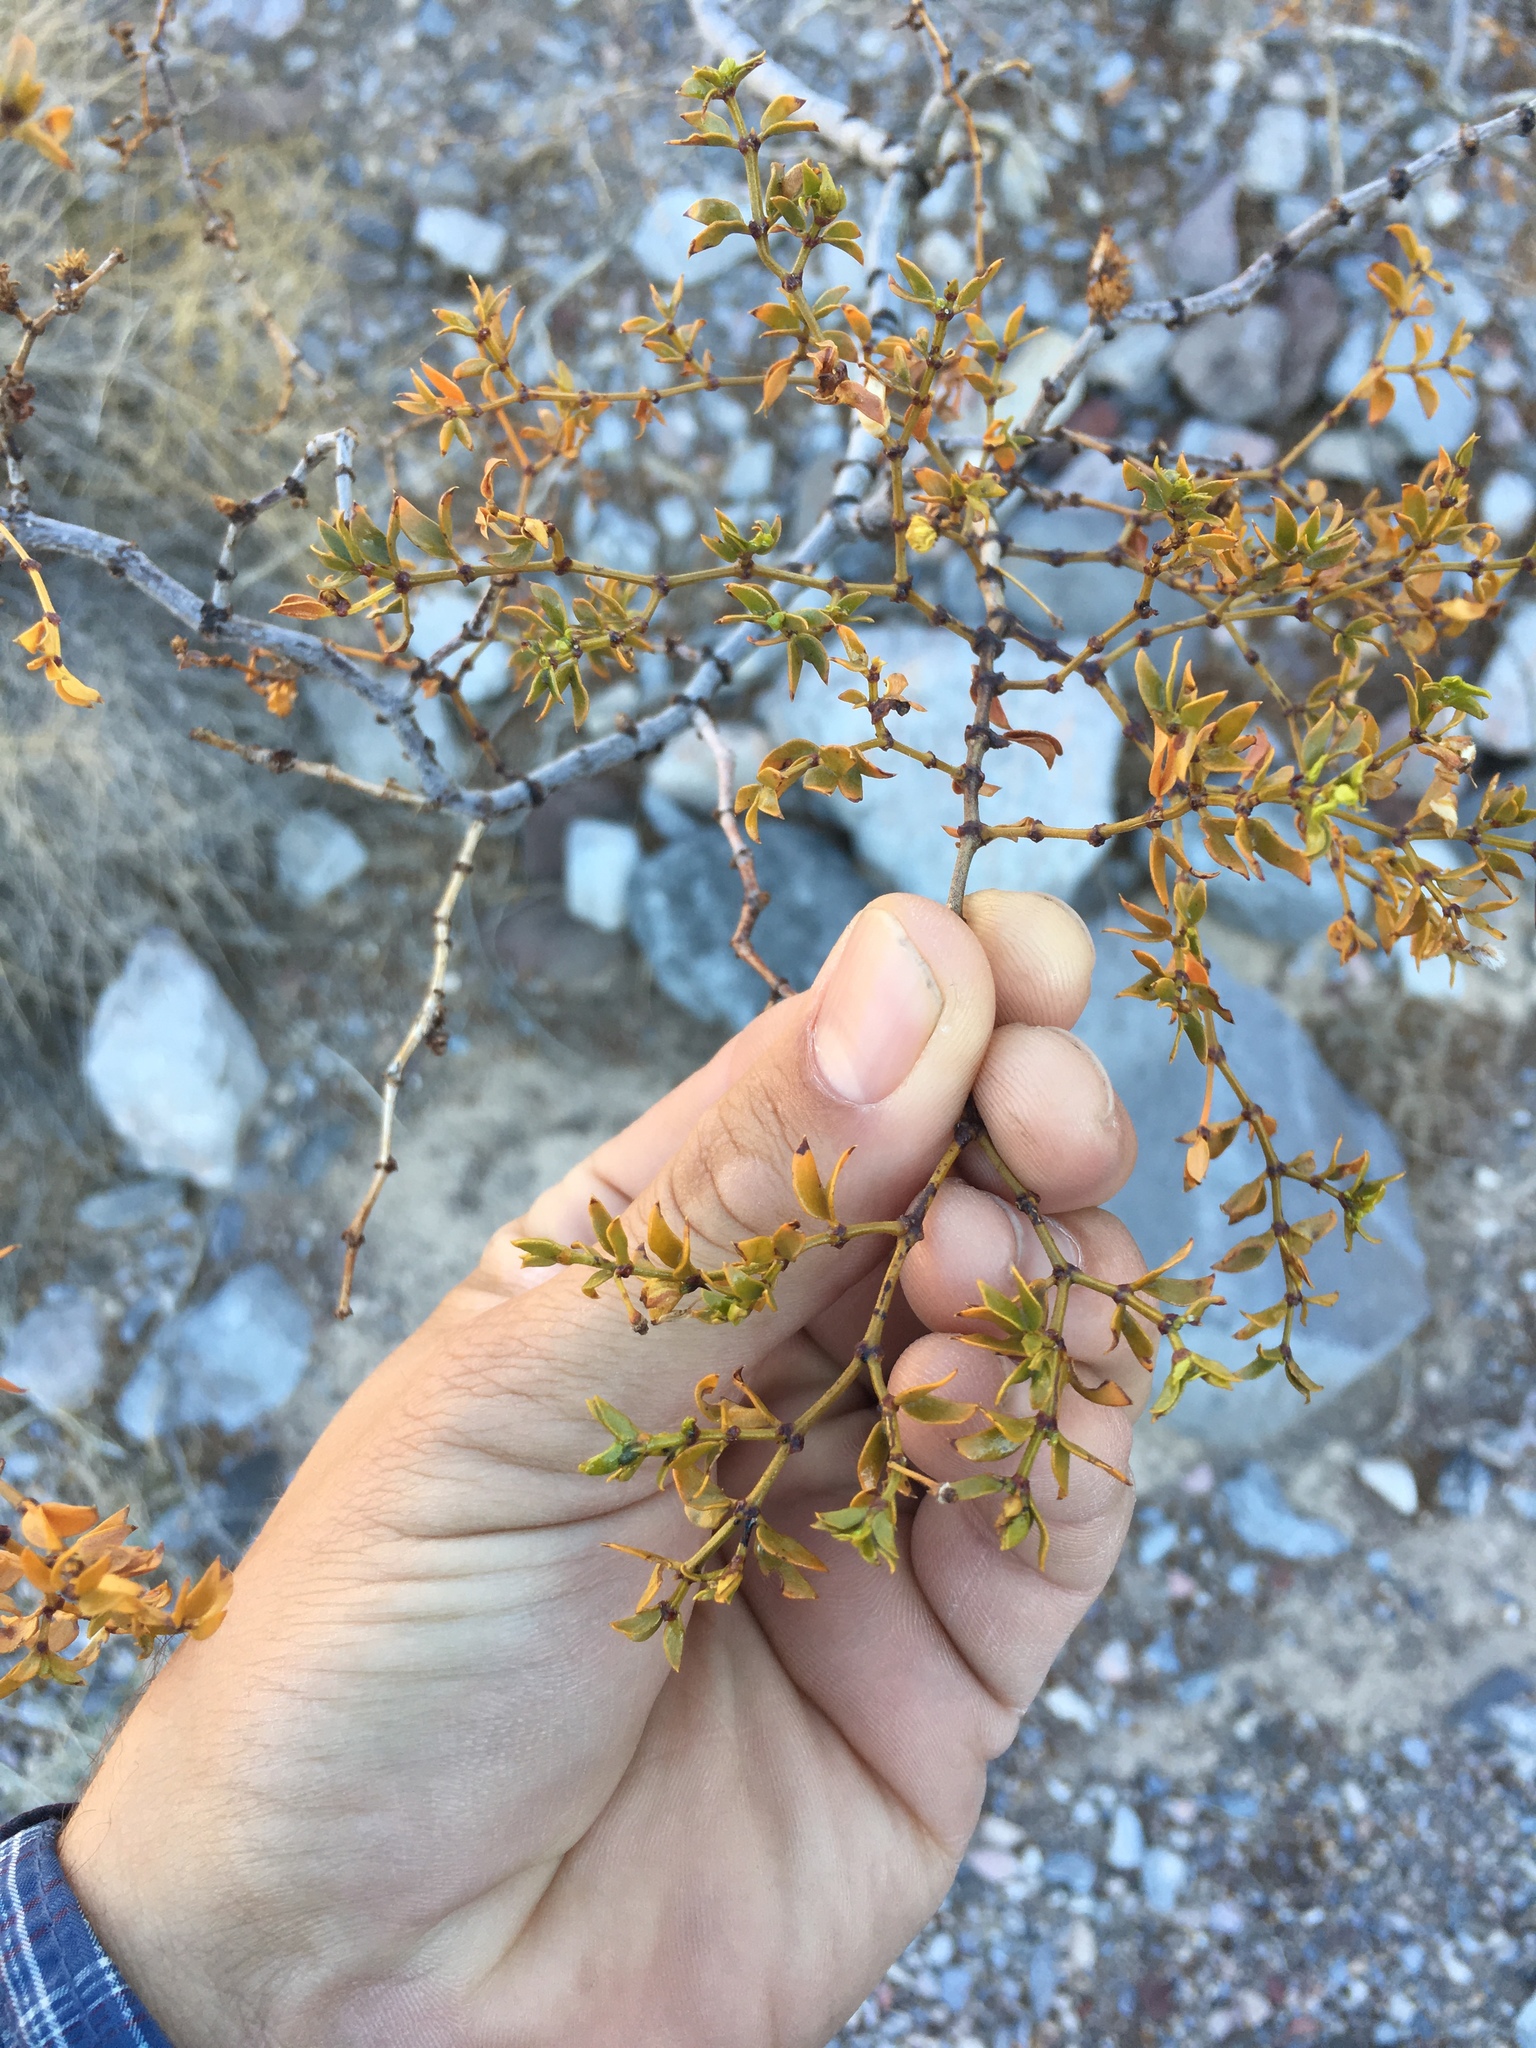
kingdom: Plantae
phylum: Tracheophyta
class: Magnoliopsida
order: Zygophyllales
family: Zygophyllaceae
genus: Larrea
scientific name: Larrea tridentata
